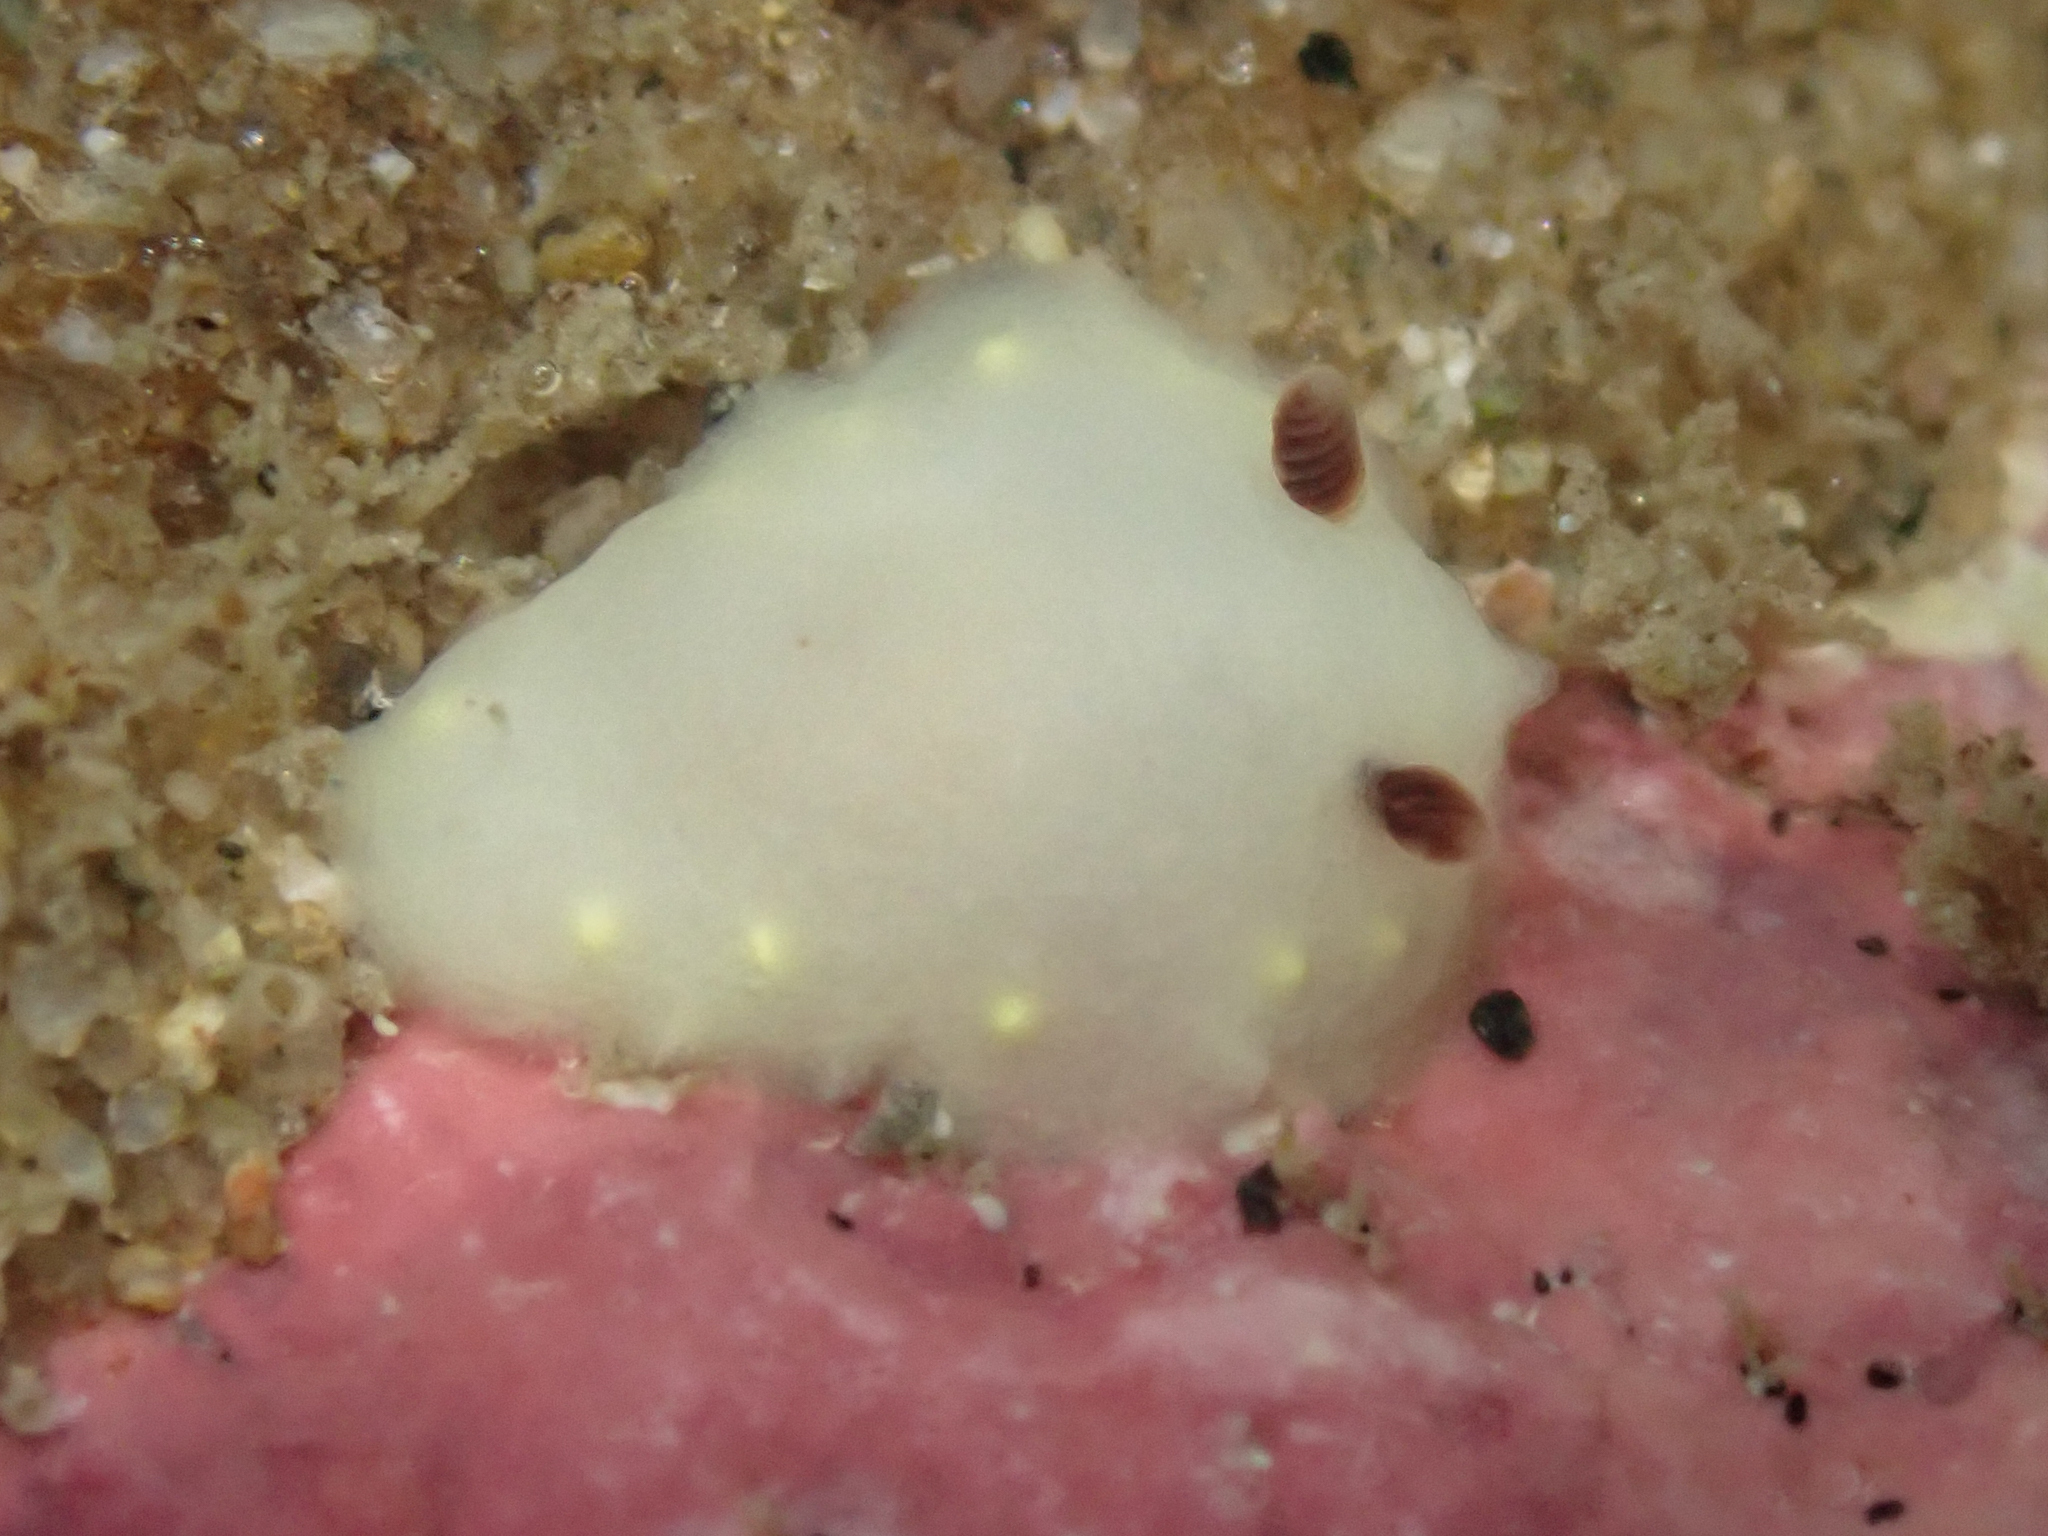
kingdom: Animalia
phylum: Mollusca
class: Gastropoda
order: Nudibranchia
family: Cadlinidae
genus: Cadlina
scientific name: Cadlina flavomaculata
